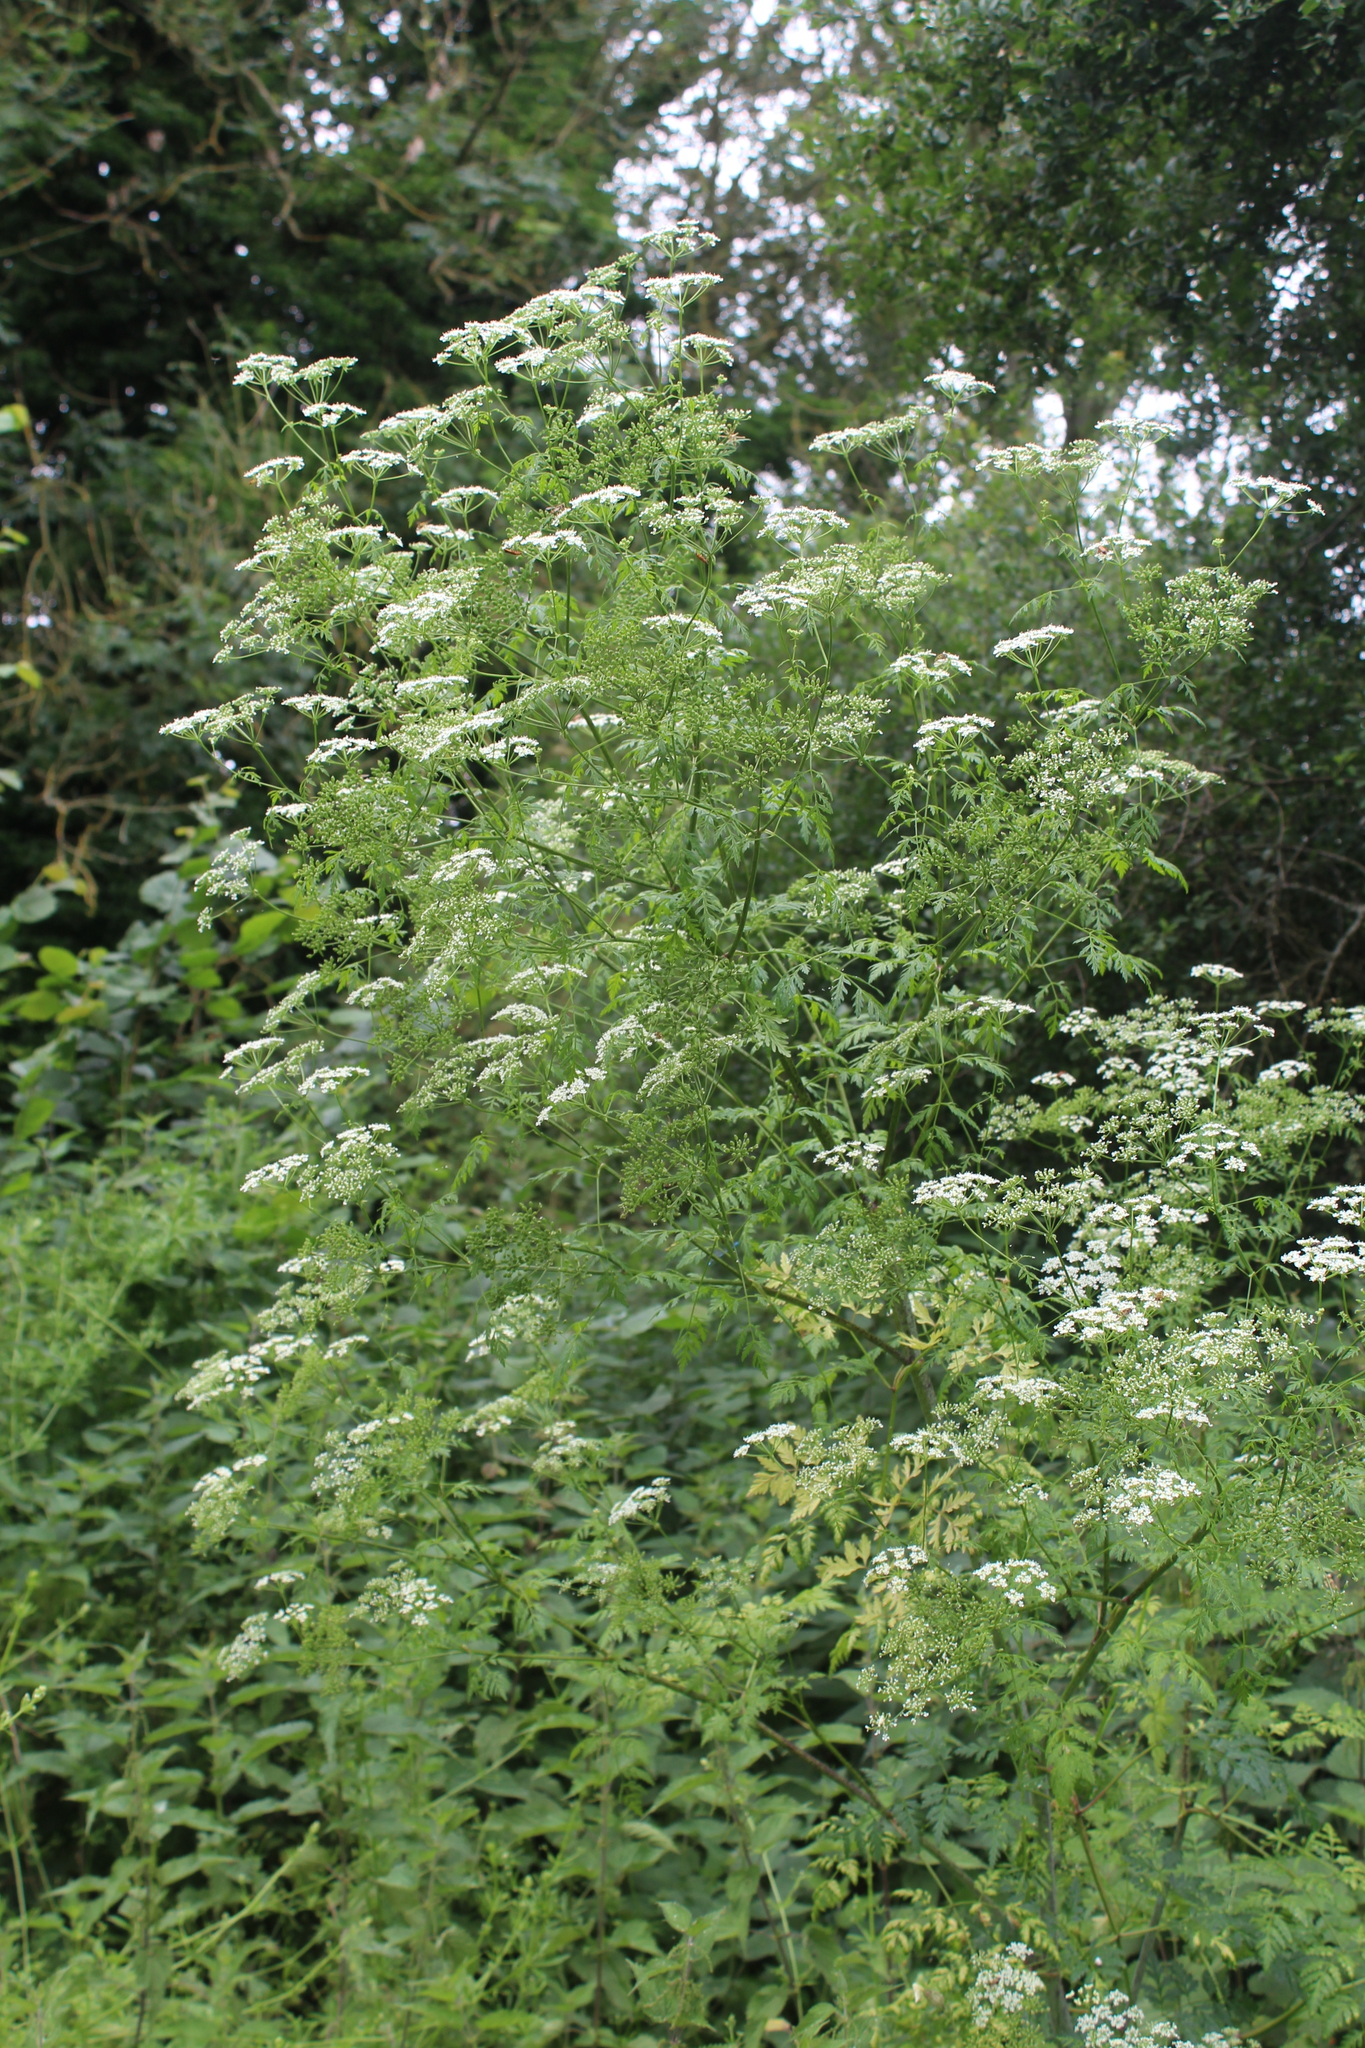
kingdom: Plantae
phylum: Tracheophyta
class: Magnoliopsida
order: Apiales
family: Apiaceae
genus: Conium
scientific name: Conium maculatum
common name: Hemlock
